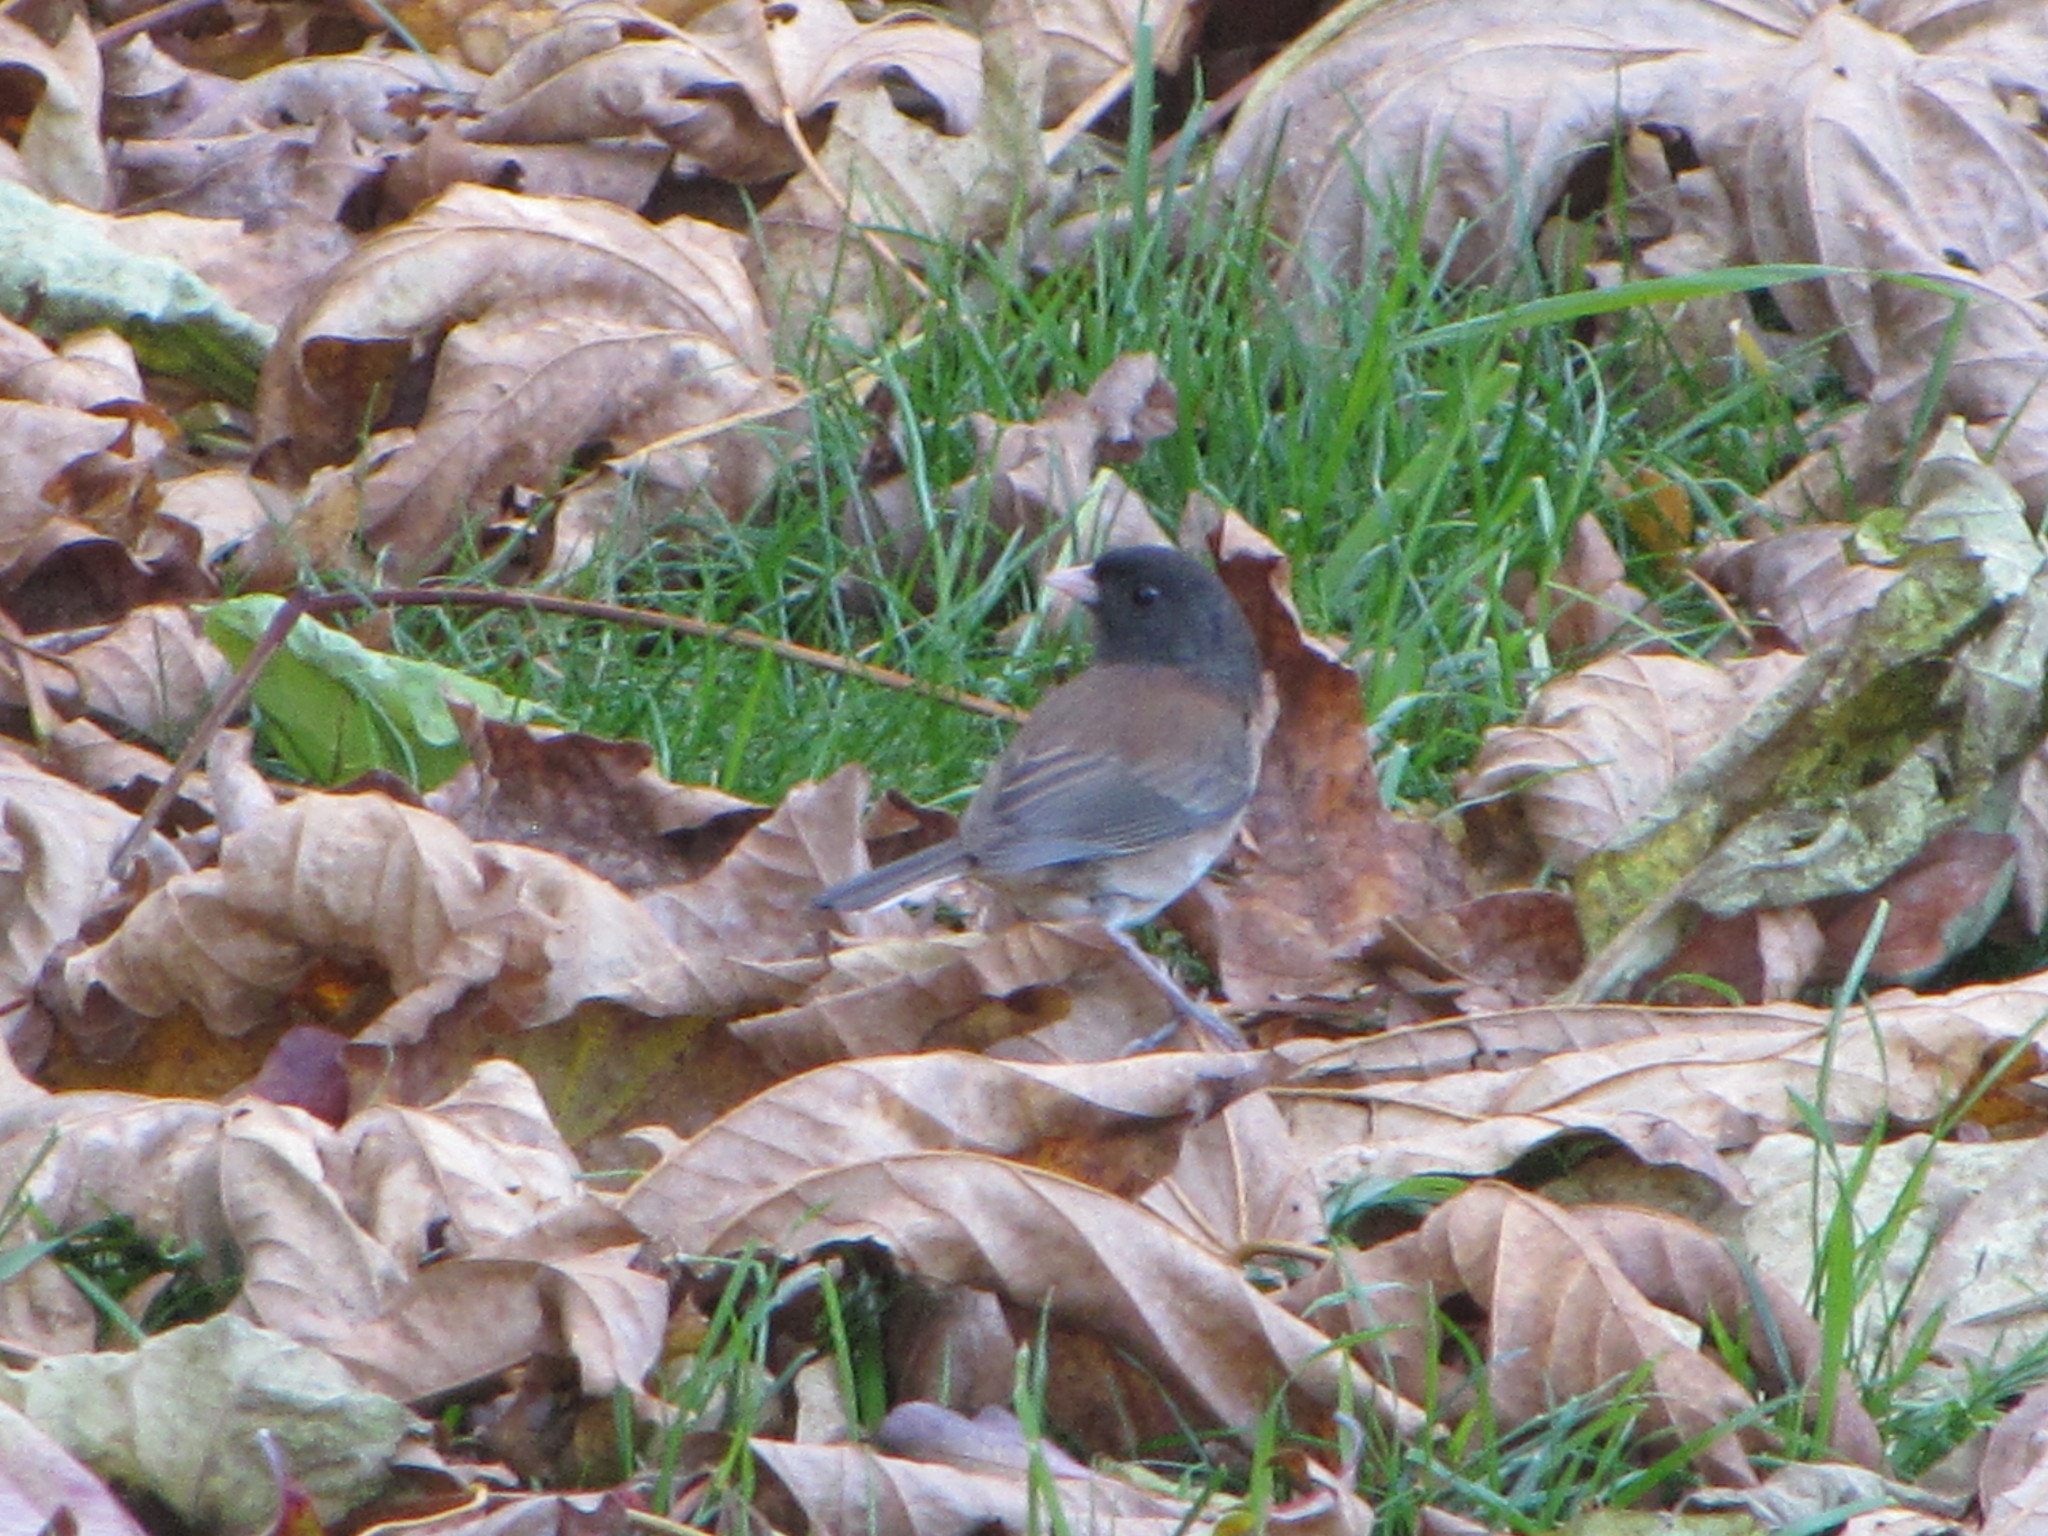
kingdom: Animalia
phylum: Chordata
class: Aves
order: Passeriformes
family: Passerellidae
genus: Junco
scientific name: Junco hyemalis
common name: Dark-eyed junco
